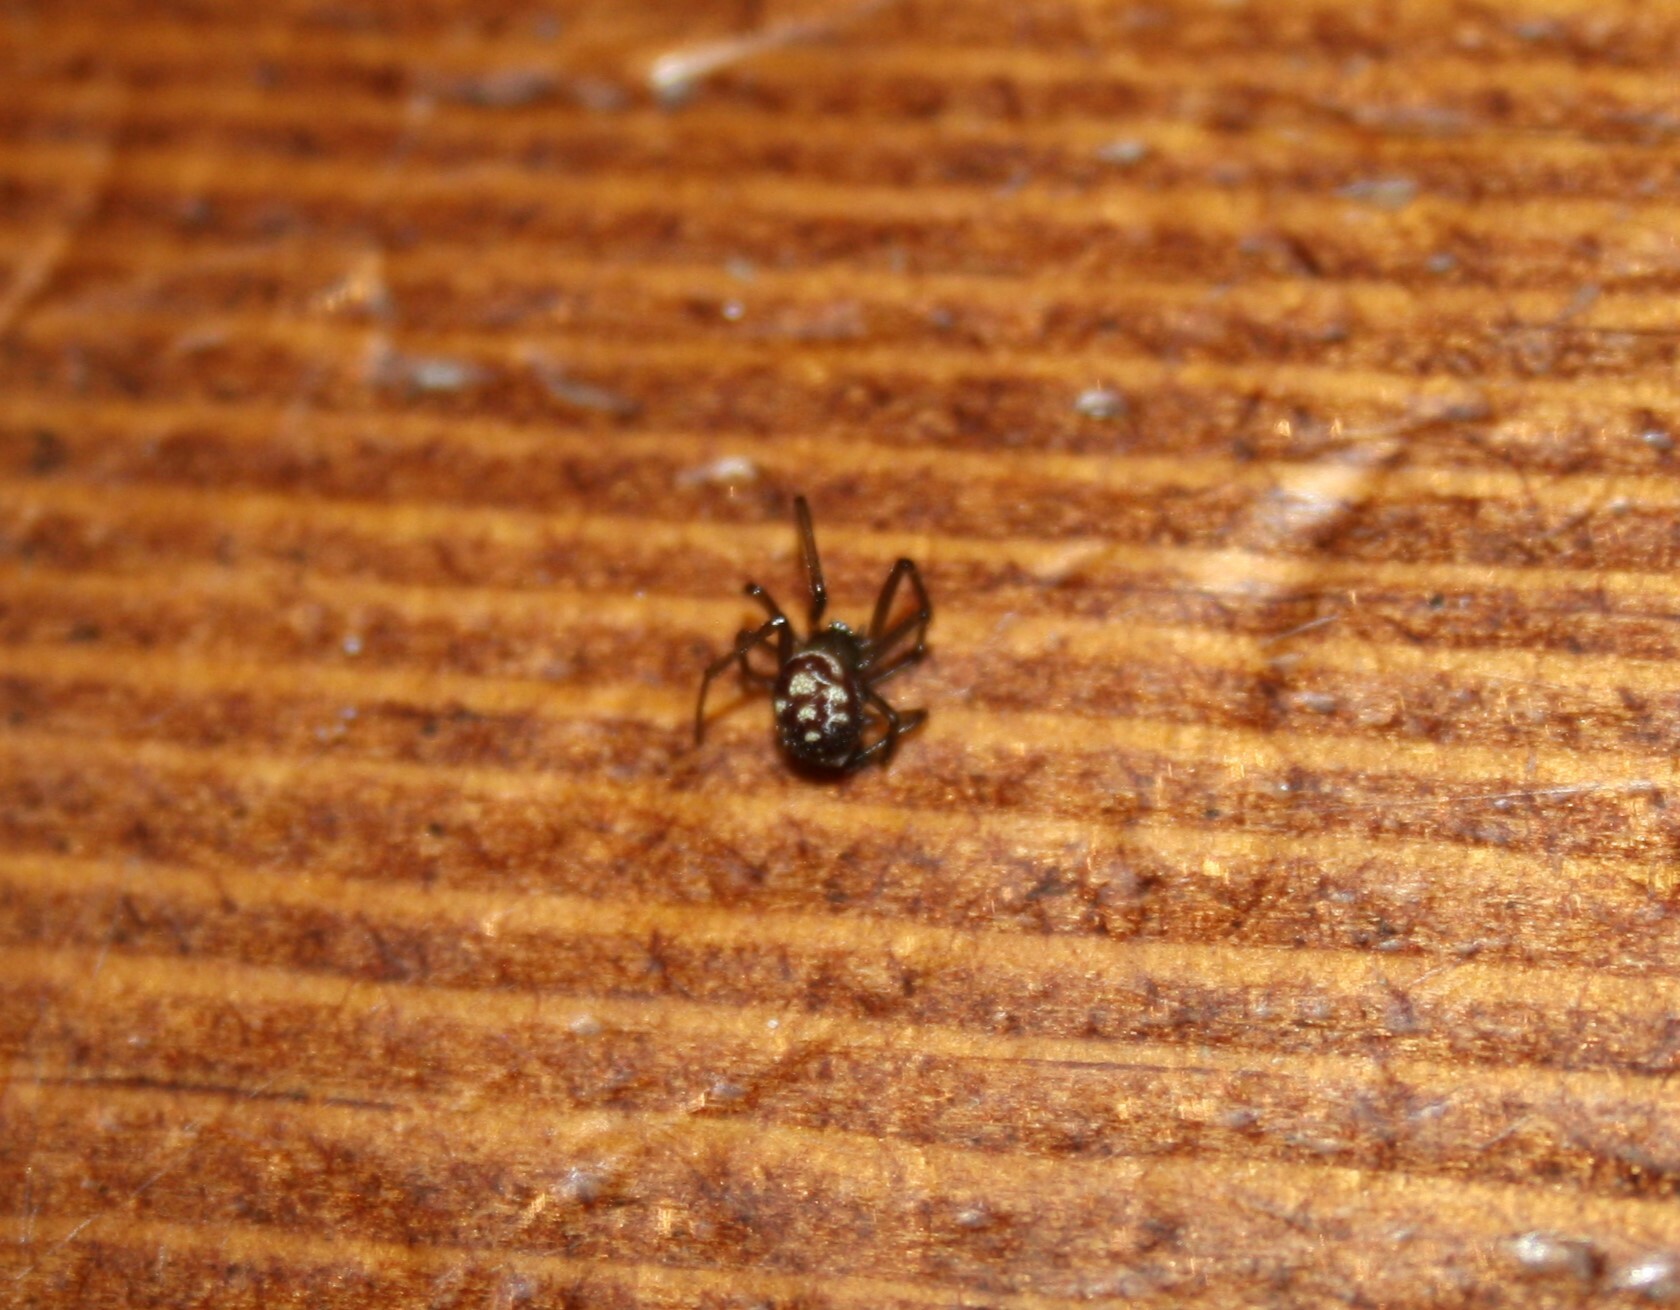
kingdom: Animalia
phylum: Arthropoda
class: Arachnida
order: Araneae
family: Theridiidae
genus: Steatoda
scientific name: Steatoda grossa
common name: False black widow
